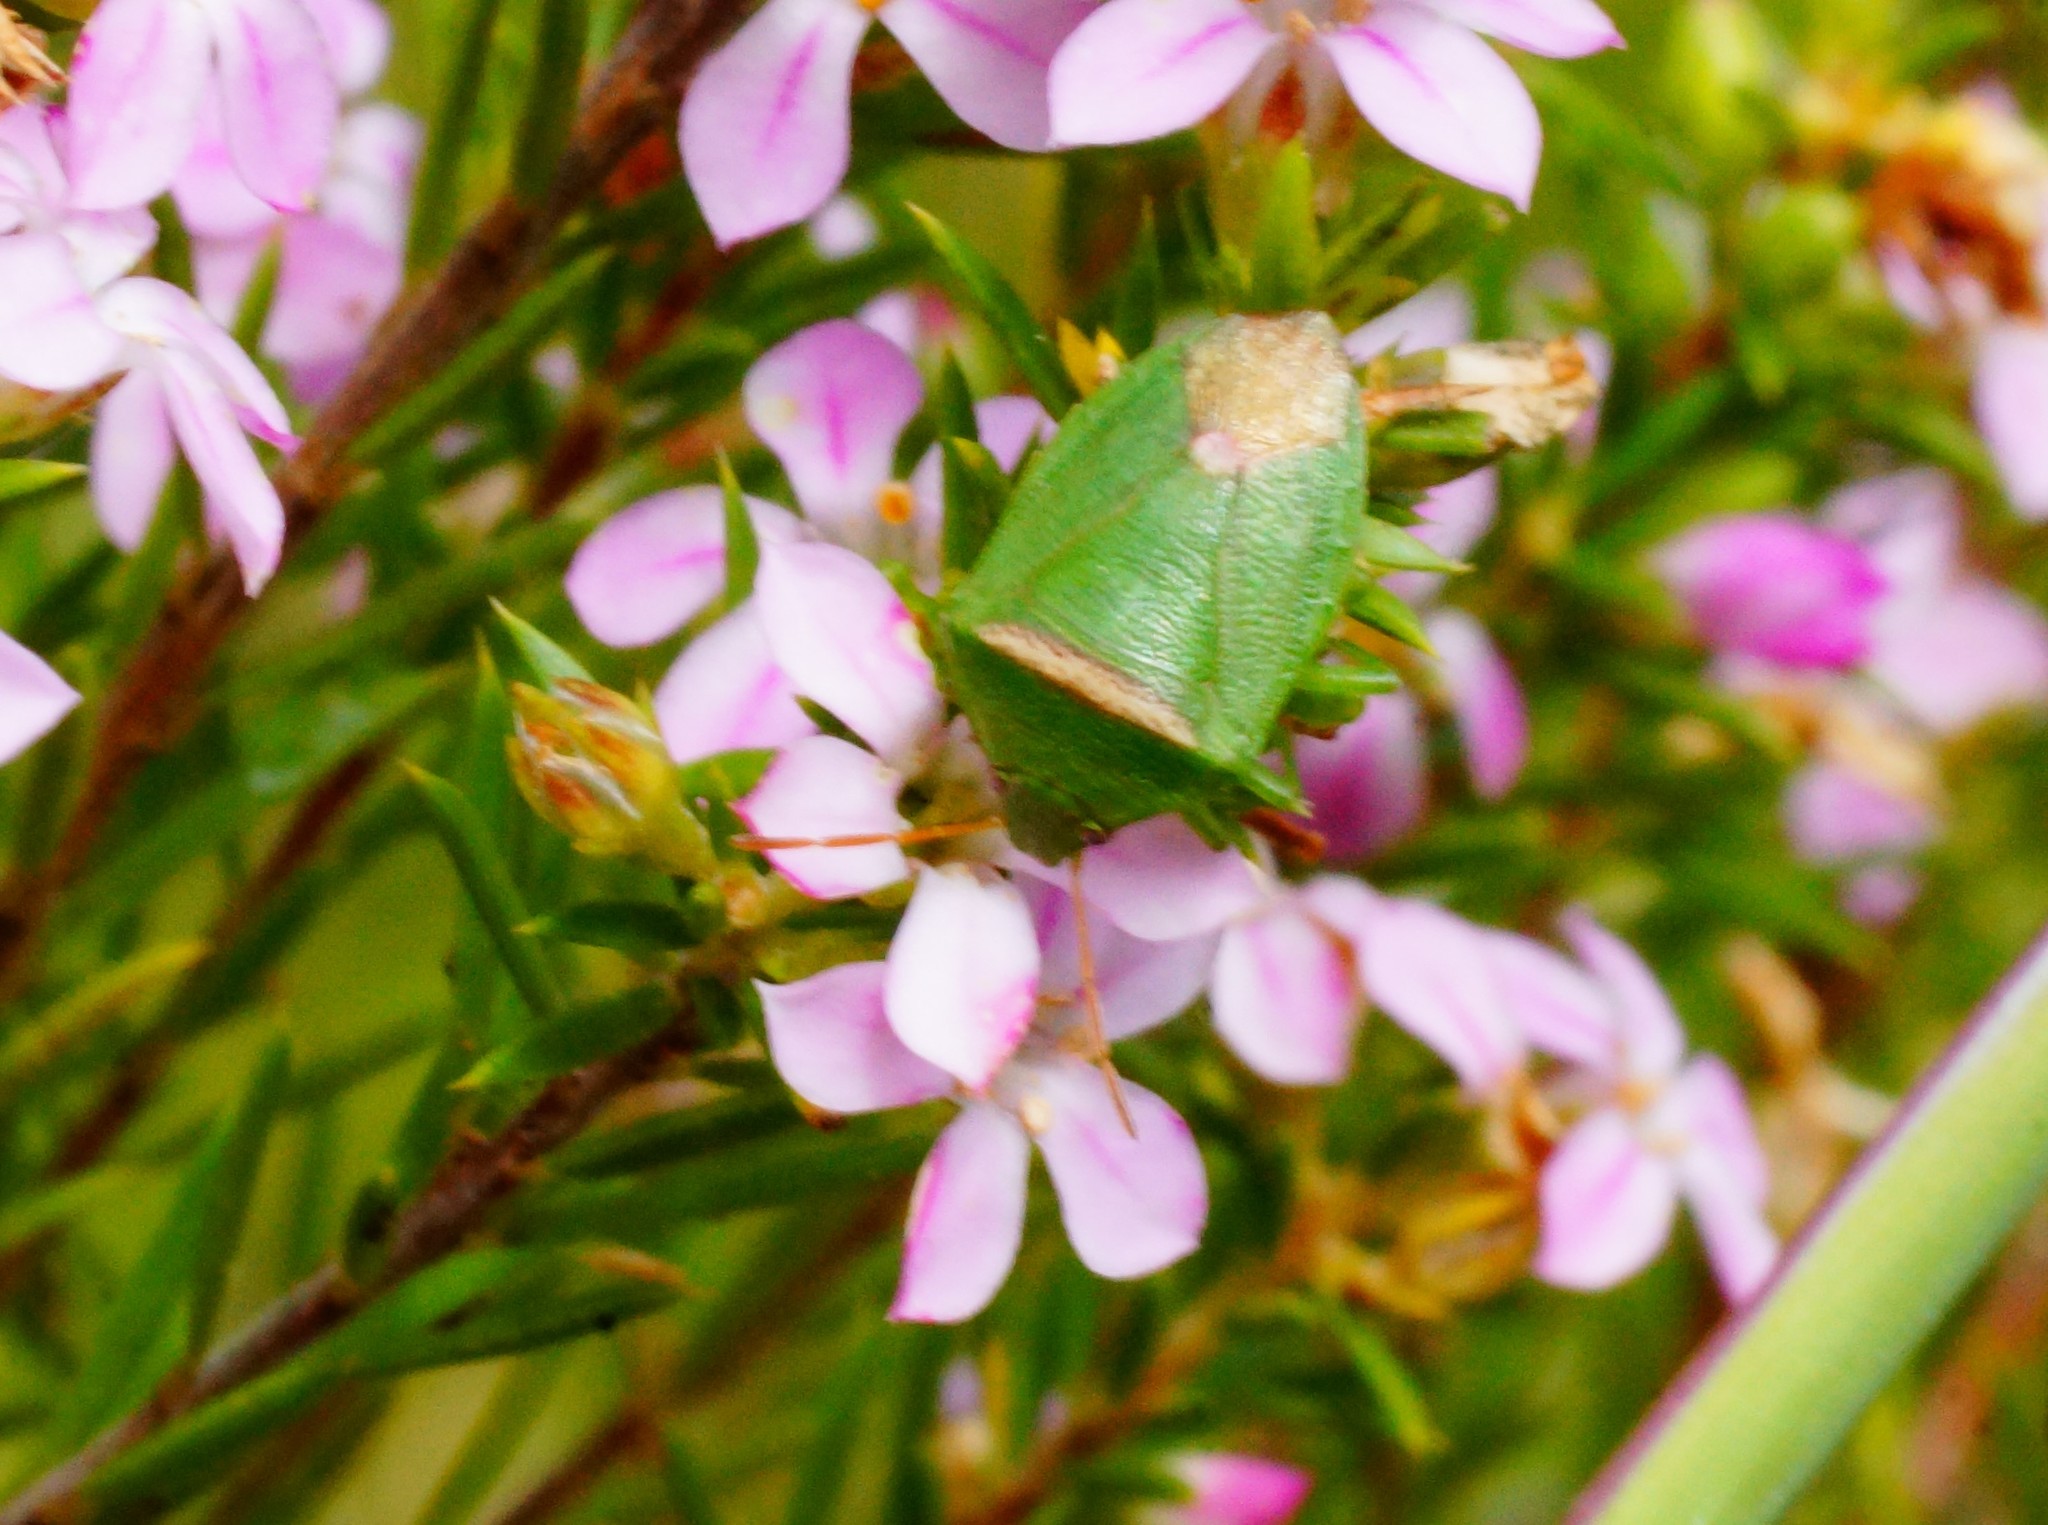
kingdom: Animalia
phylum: Arthropoda
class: Insecta
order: Hemiptera
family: Pentatomidae
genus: Ocirrhoe
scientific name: Ocirrhoe
